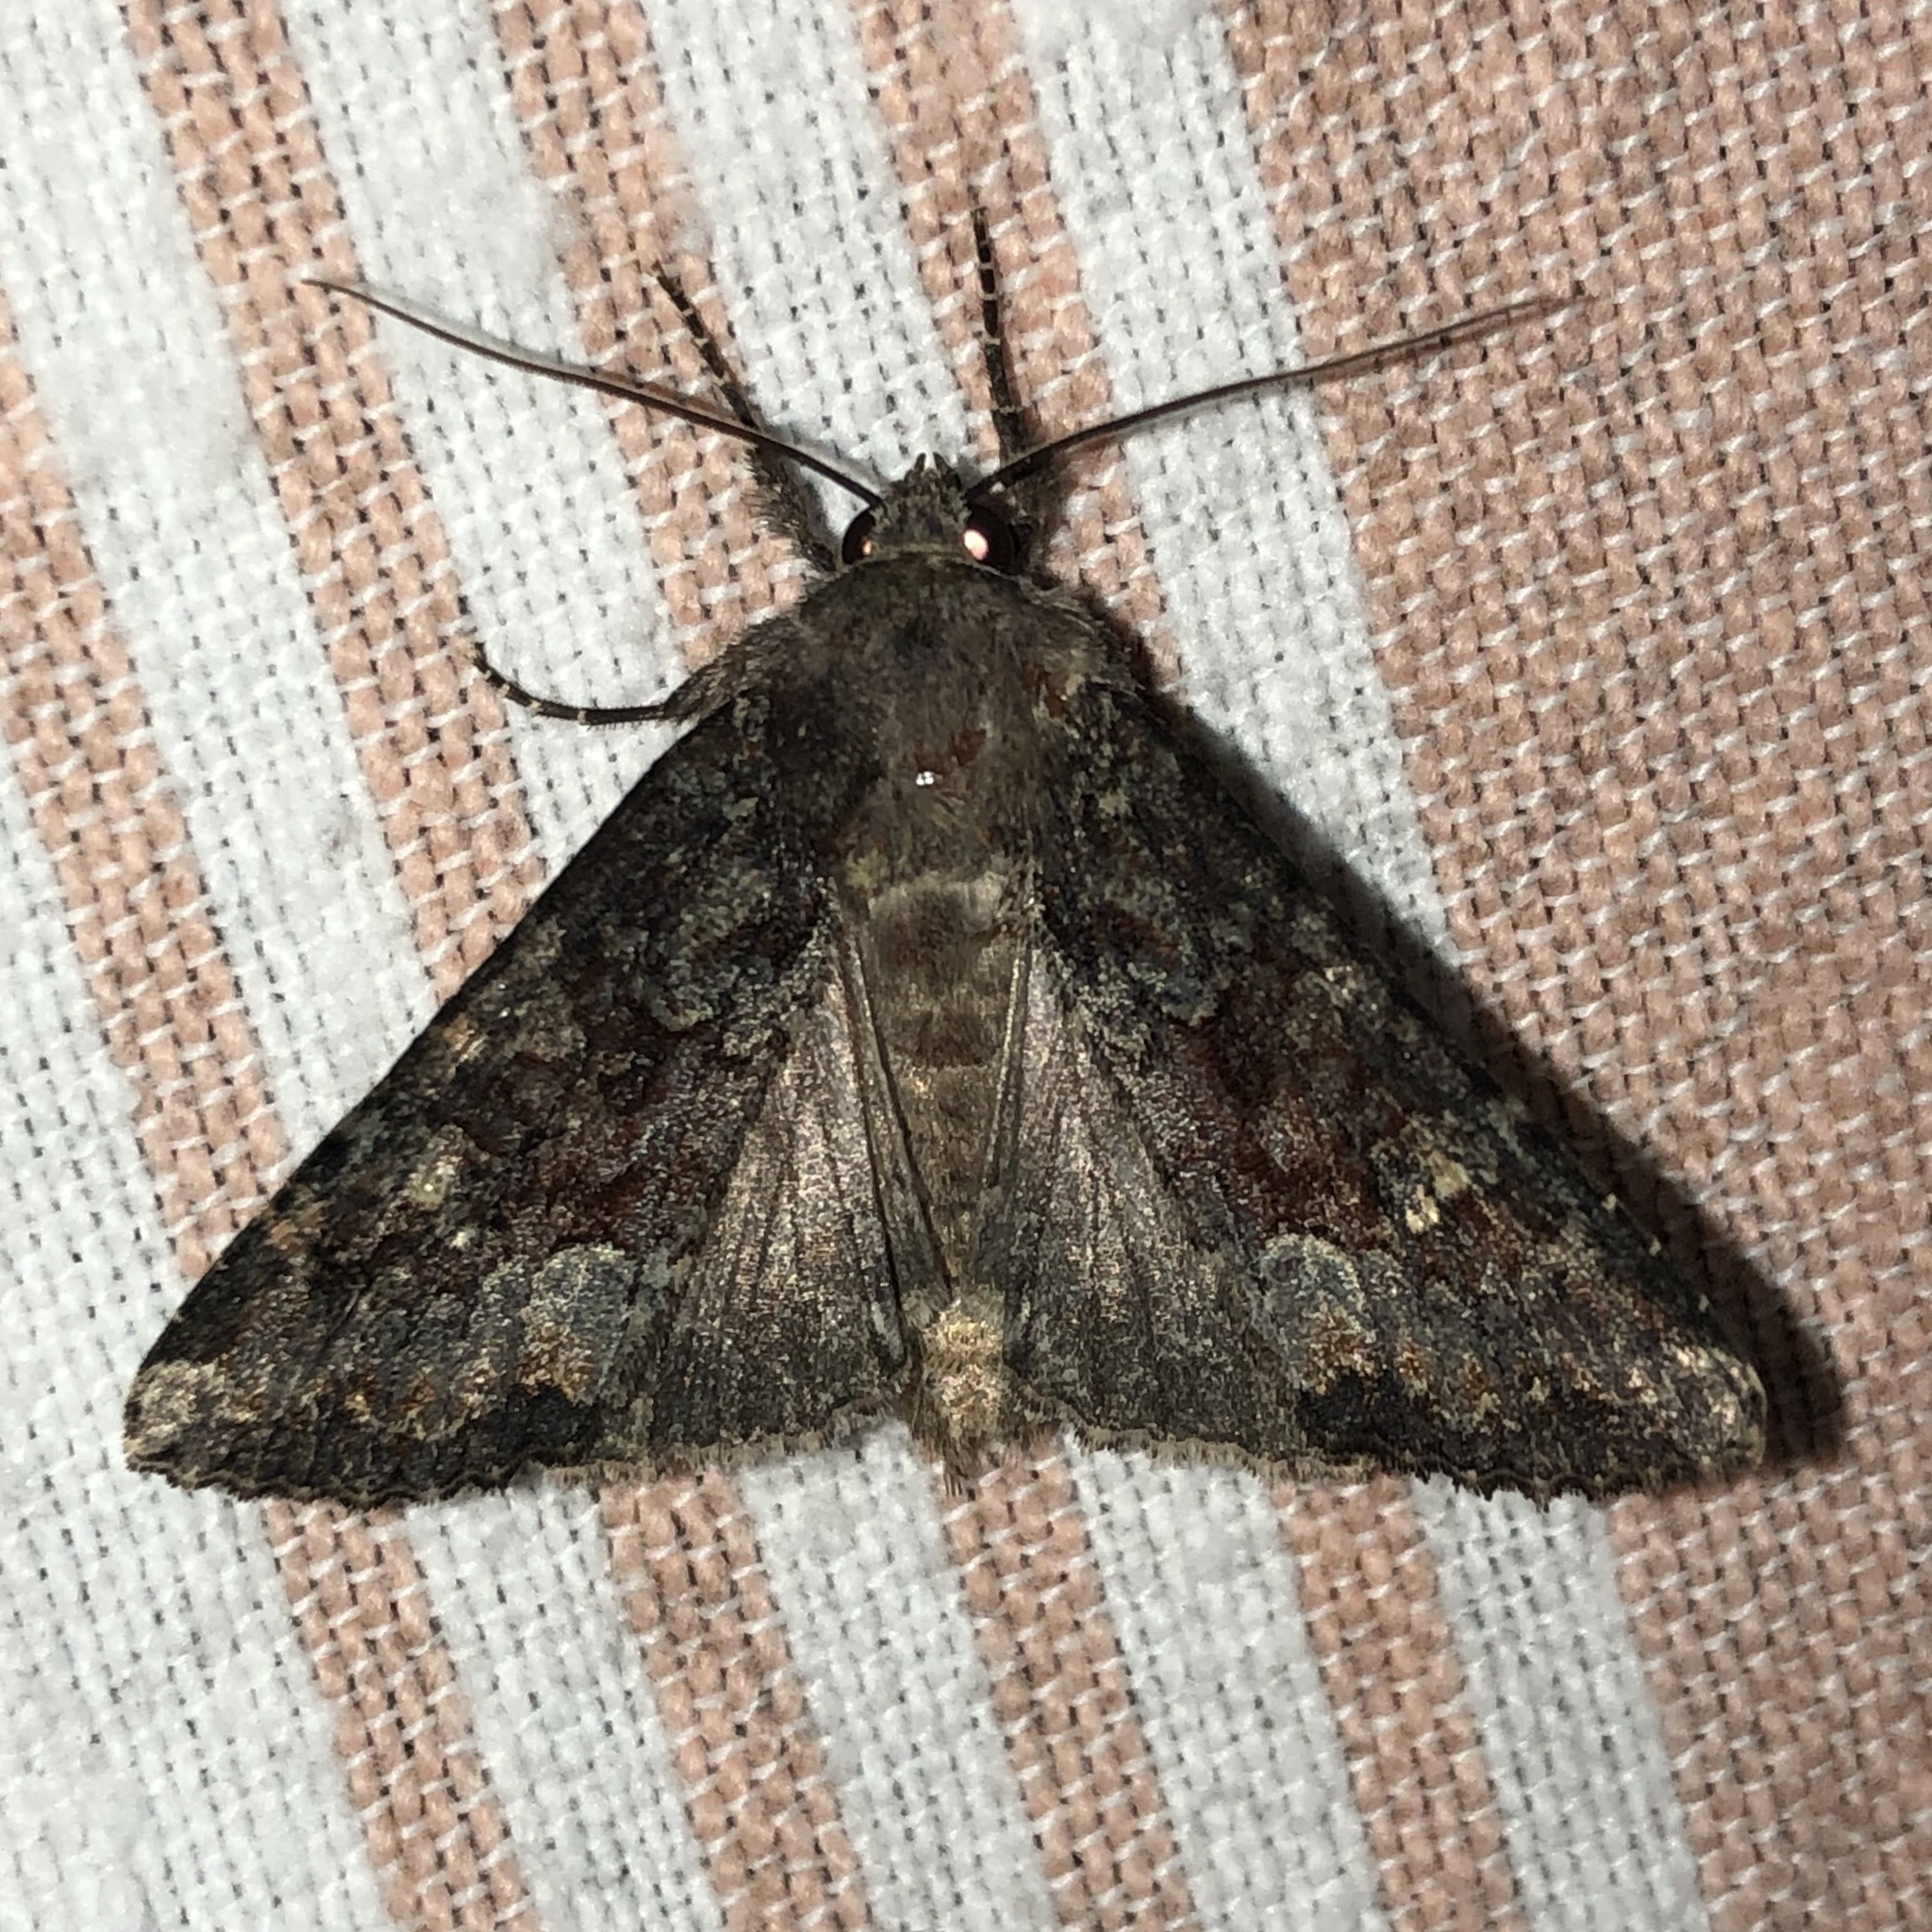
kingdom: Animalia
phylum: Arthropoda
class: Insecta
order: Lepidoptera
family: Noctuidae
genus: Apamea
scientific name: Apamea amputatrix
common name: Yellow-headed cutworm moth
